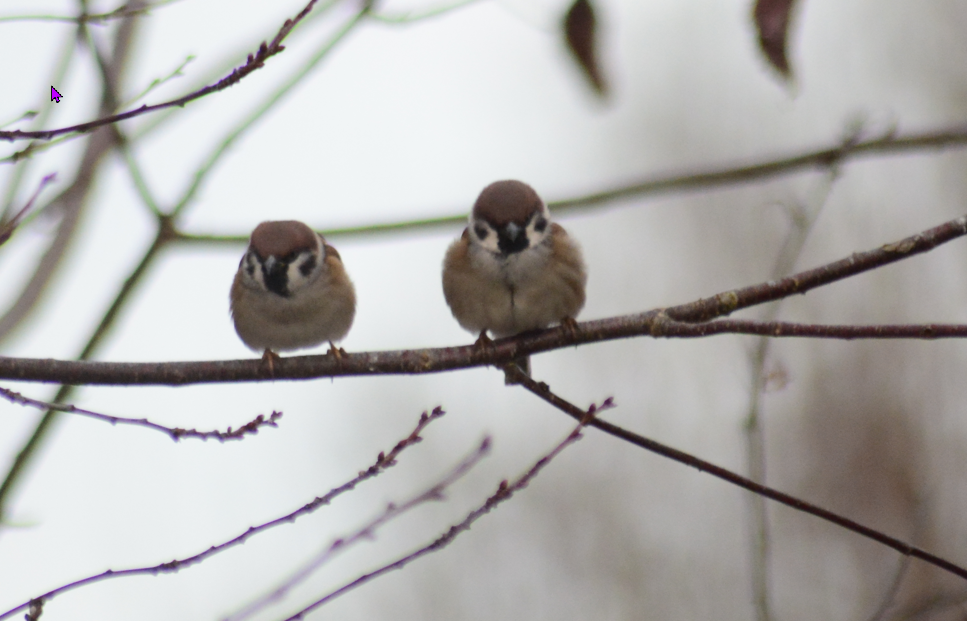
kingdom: Animalia
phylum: Chordata
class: Aves
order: Passeriformes
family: Passeridae
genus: Passer
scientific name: Passer montanus
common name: Eurasian tree sparrow
